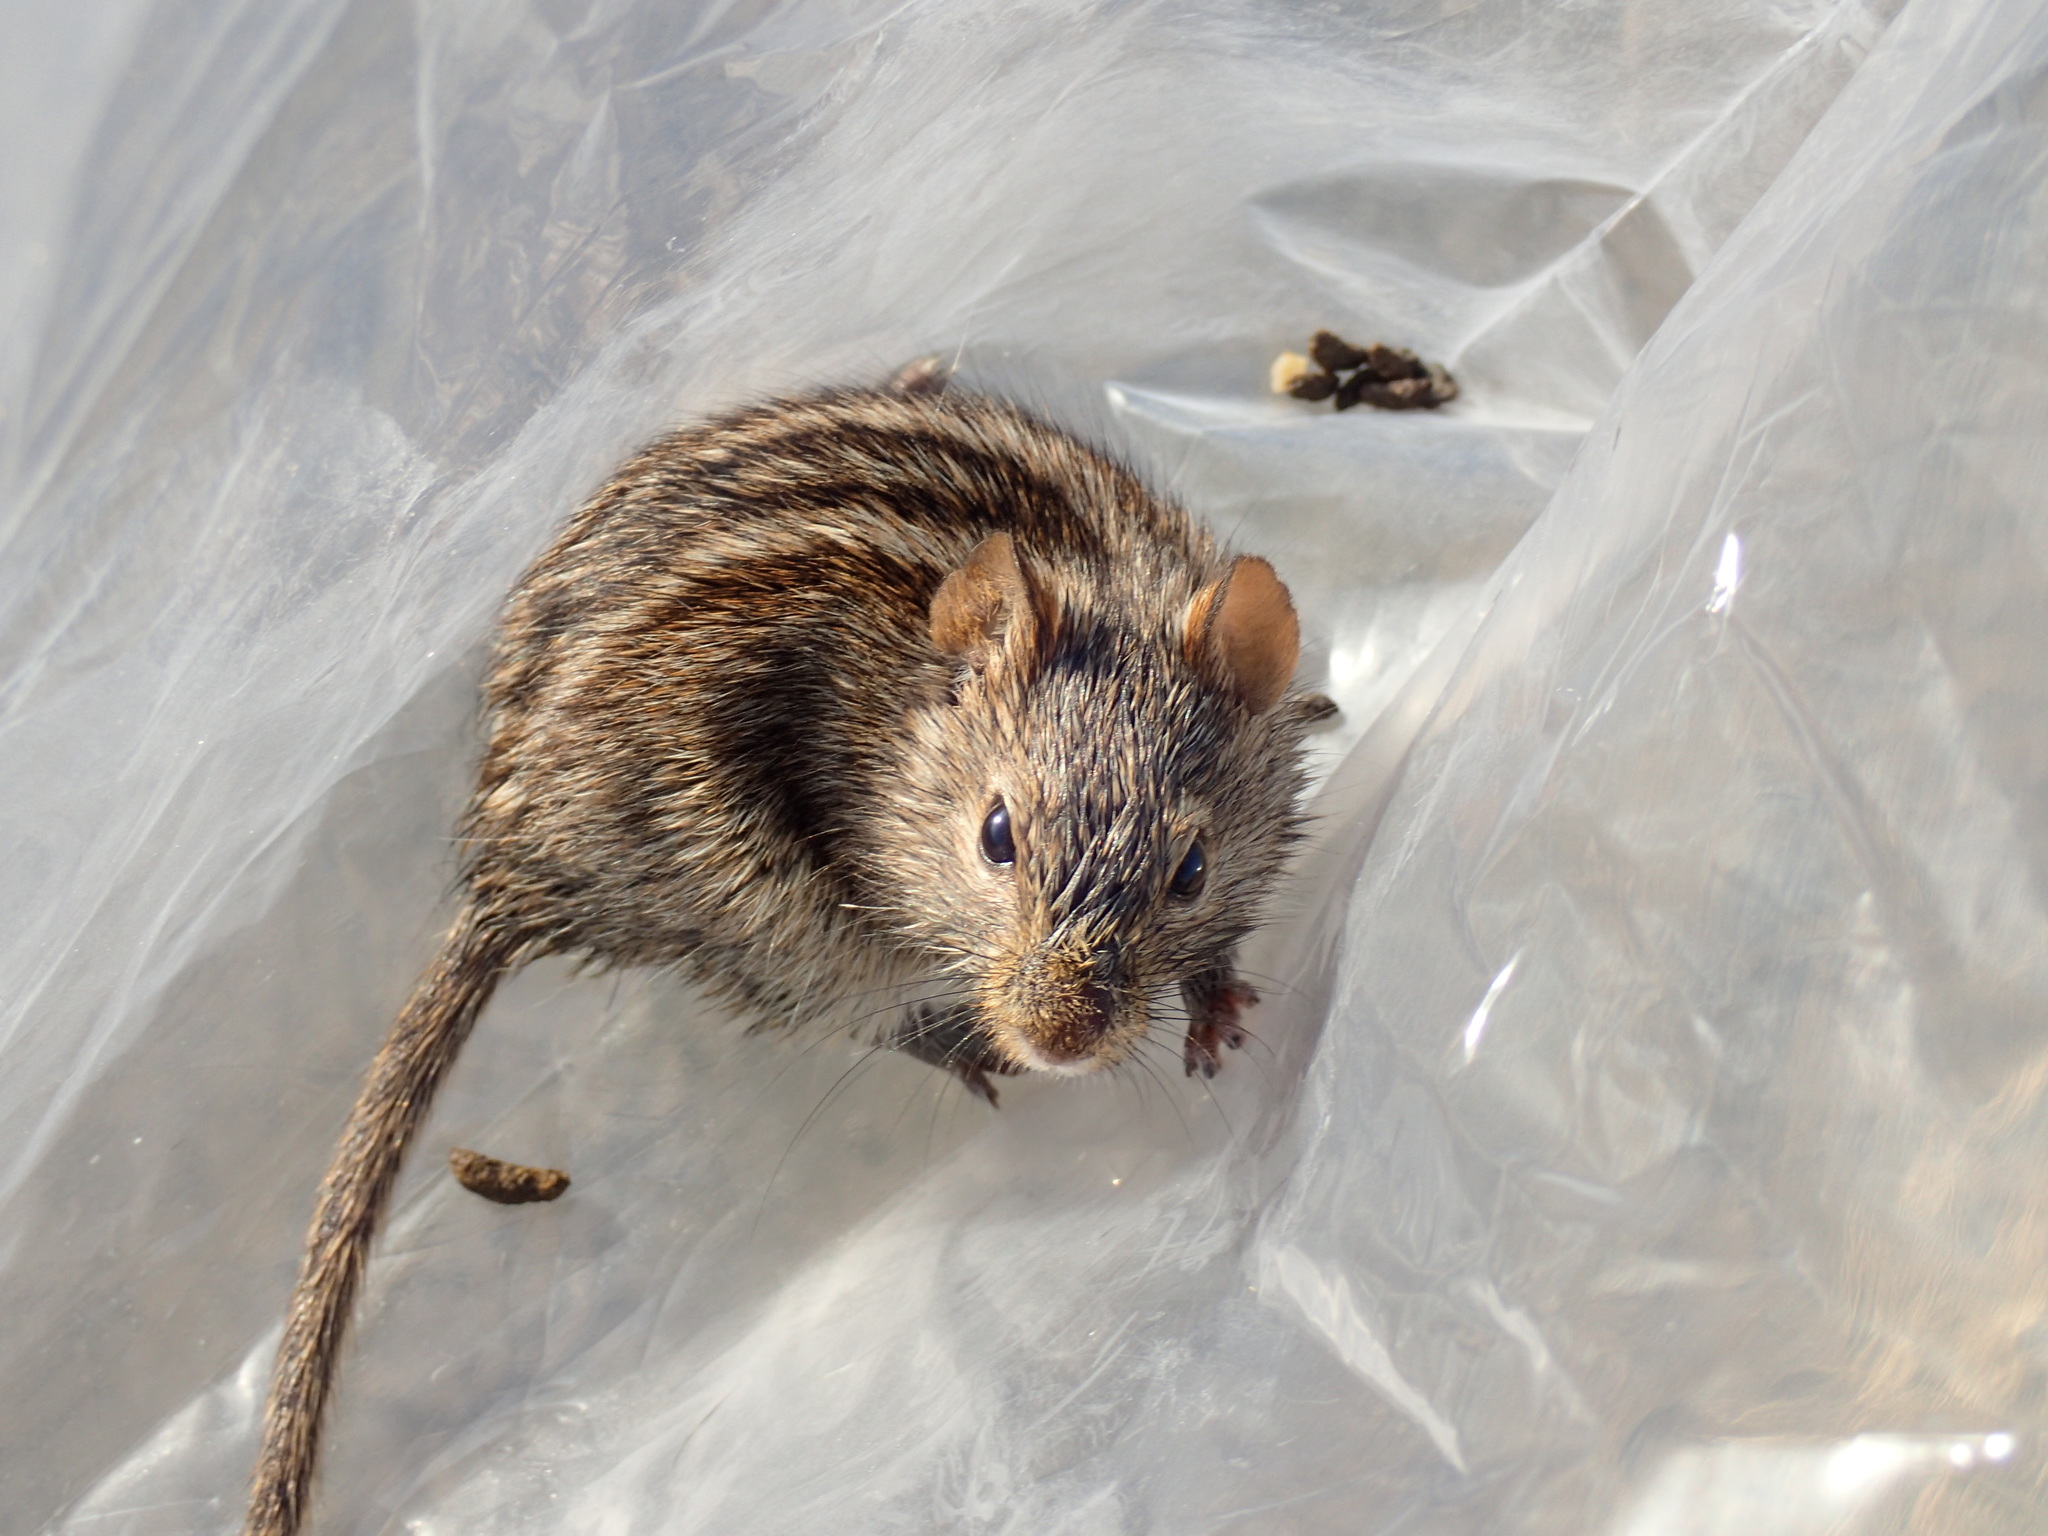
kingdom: Animalia
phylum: Chordata
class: Mammalia
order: Rodentia
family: Muridae
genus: Rhabdomys
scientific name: Rhabdomys pumilio
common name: Xeric four-striped grass rat
